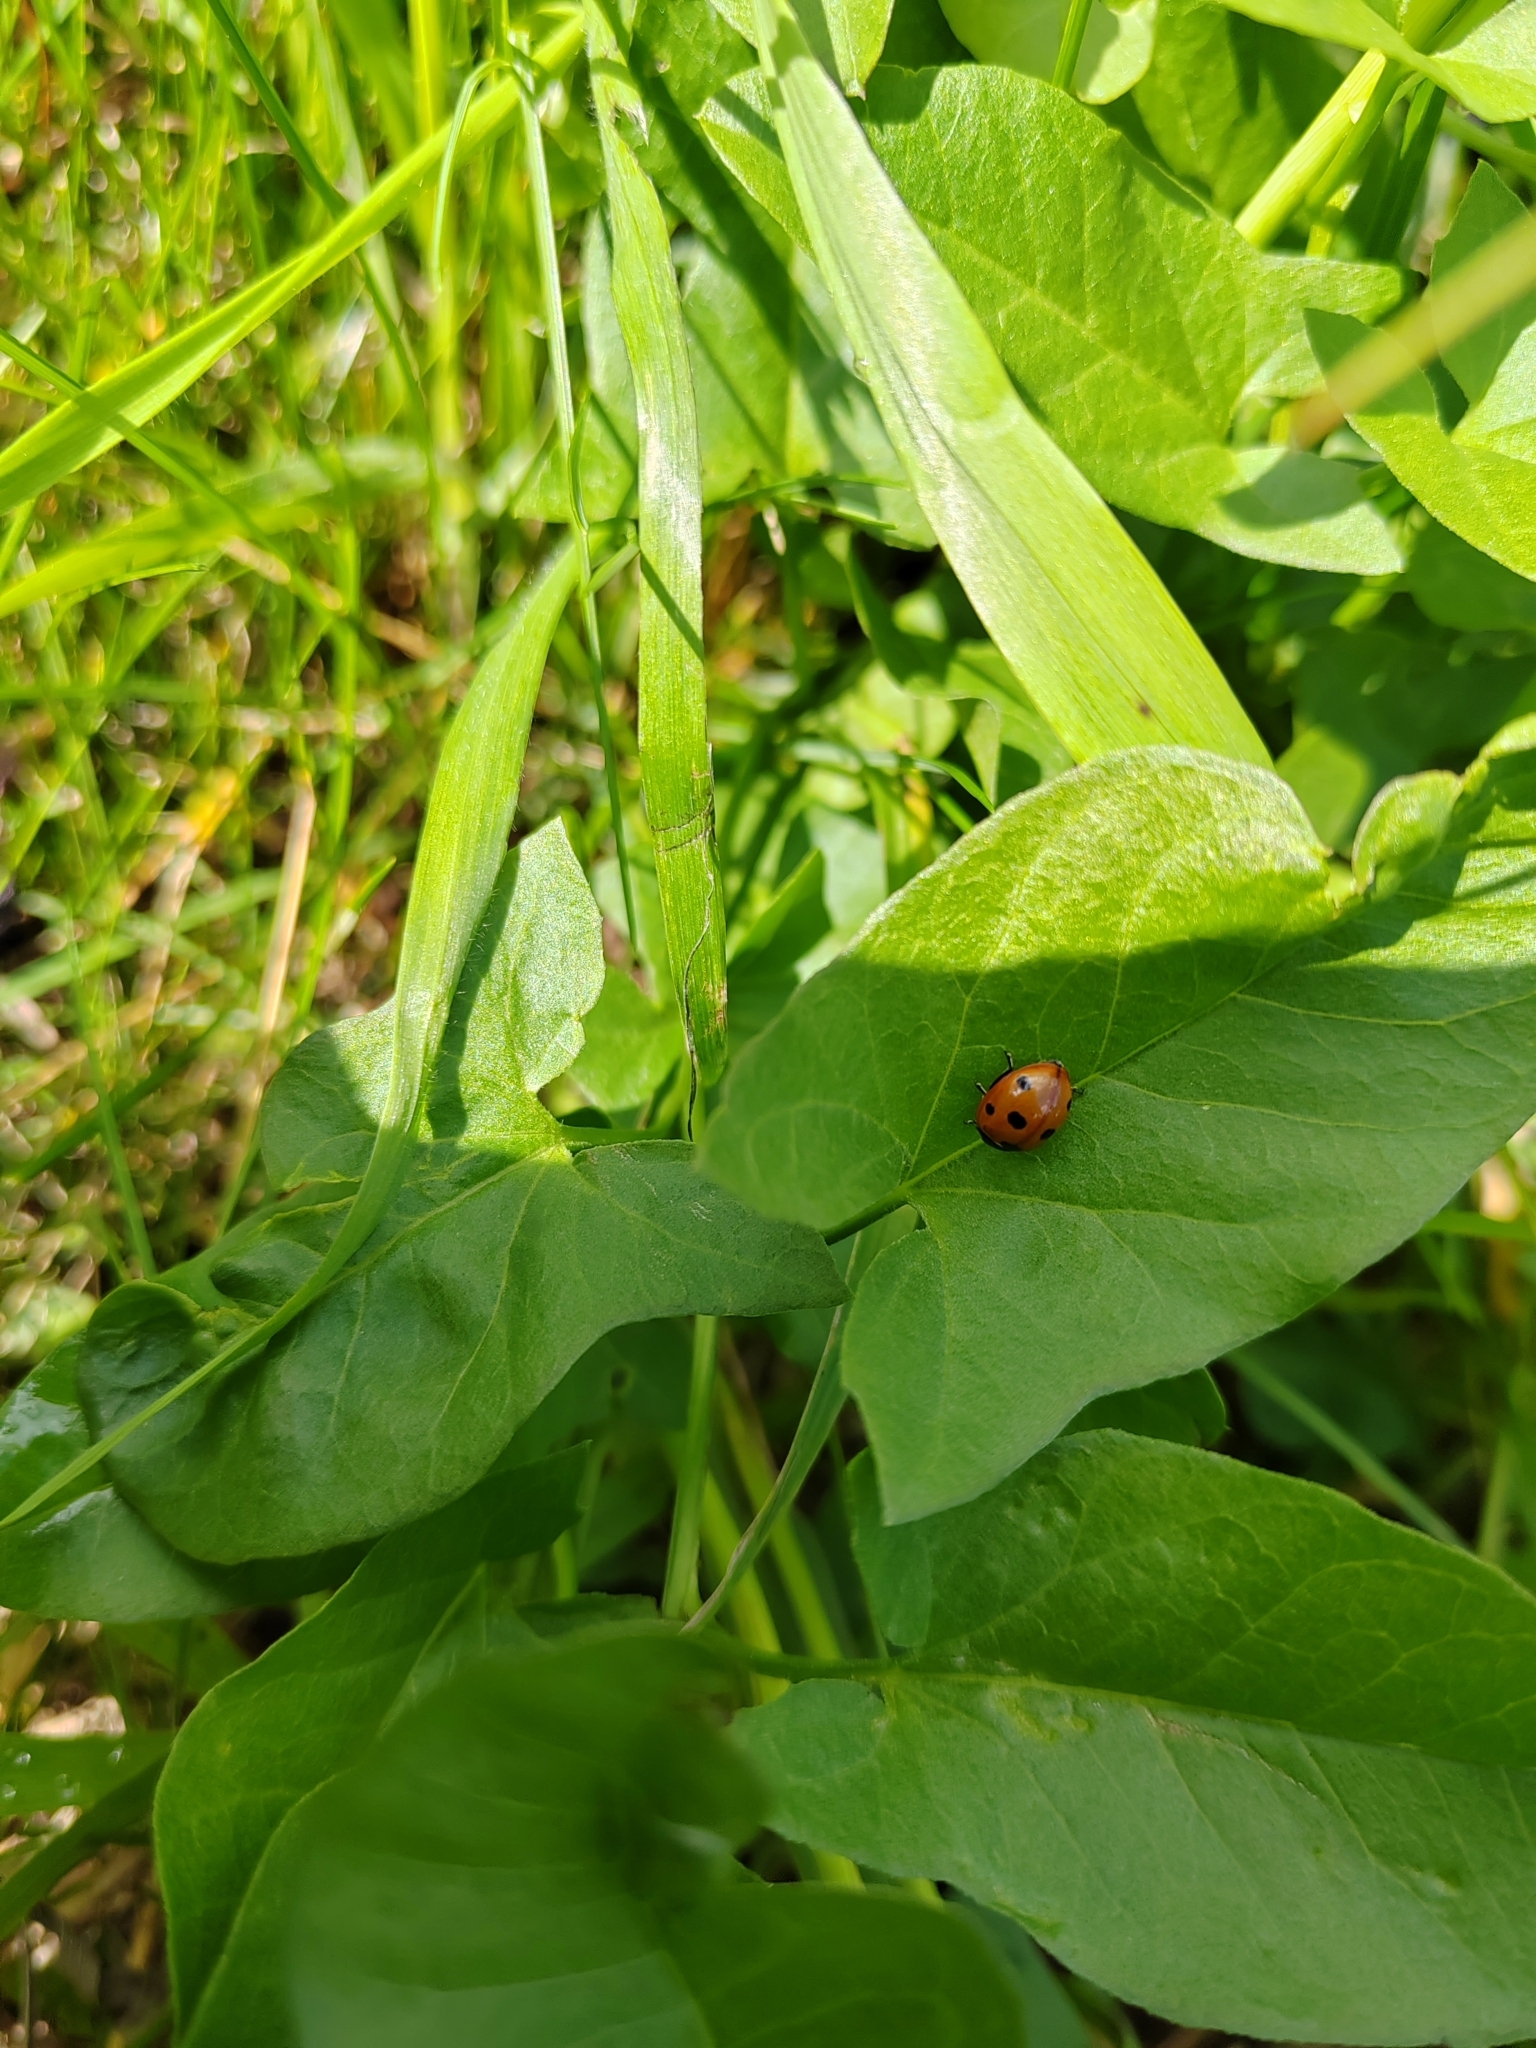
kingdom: Animalia
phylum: Arthropoda
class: Insecta
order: Coleoptera
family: Coccinellidae
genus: Coccinella
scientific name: Coccinella septempunctata
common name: Sevenspotted lady beetle
